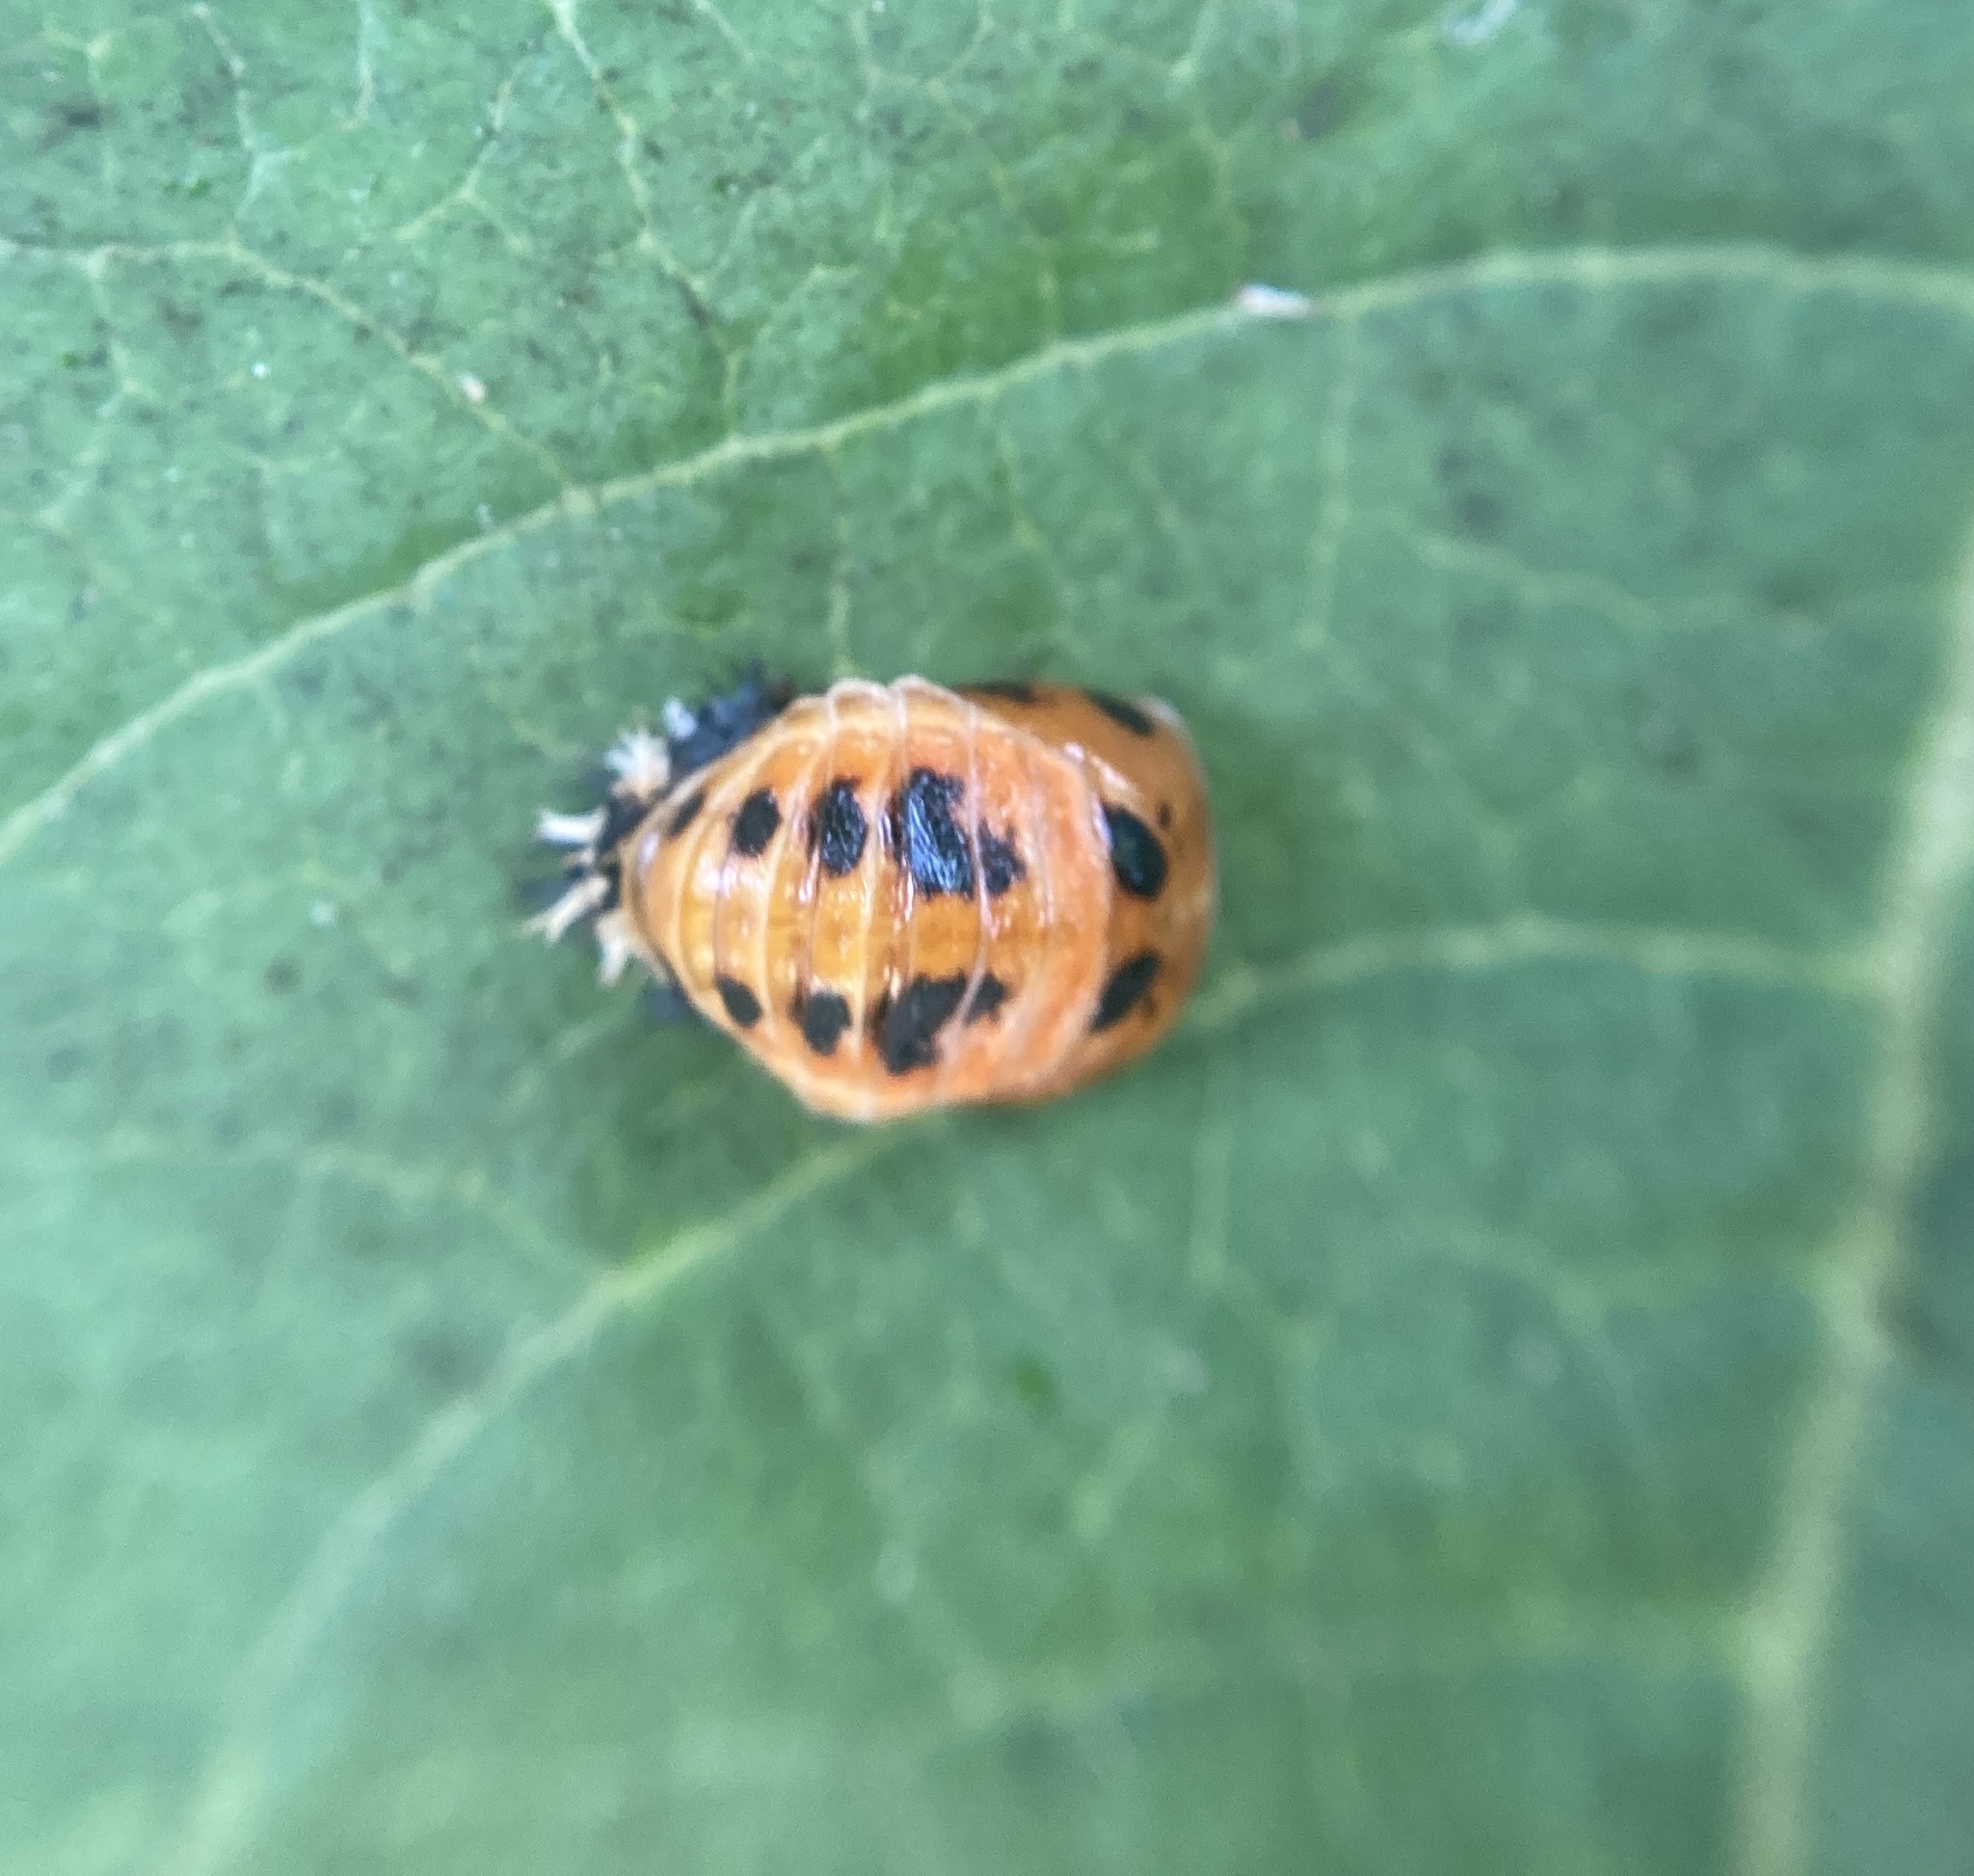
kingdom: Animalia
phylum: Arthropoda
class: Insecta
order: Coleoptera
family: Coccinellidae
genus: Harmonia
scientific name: Harmonia axyridis
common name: Harlequin ladybird
